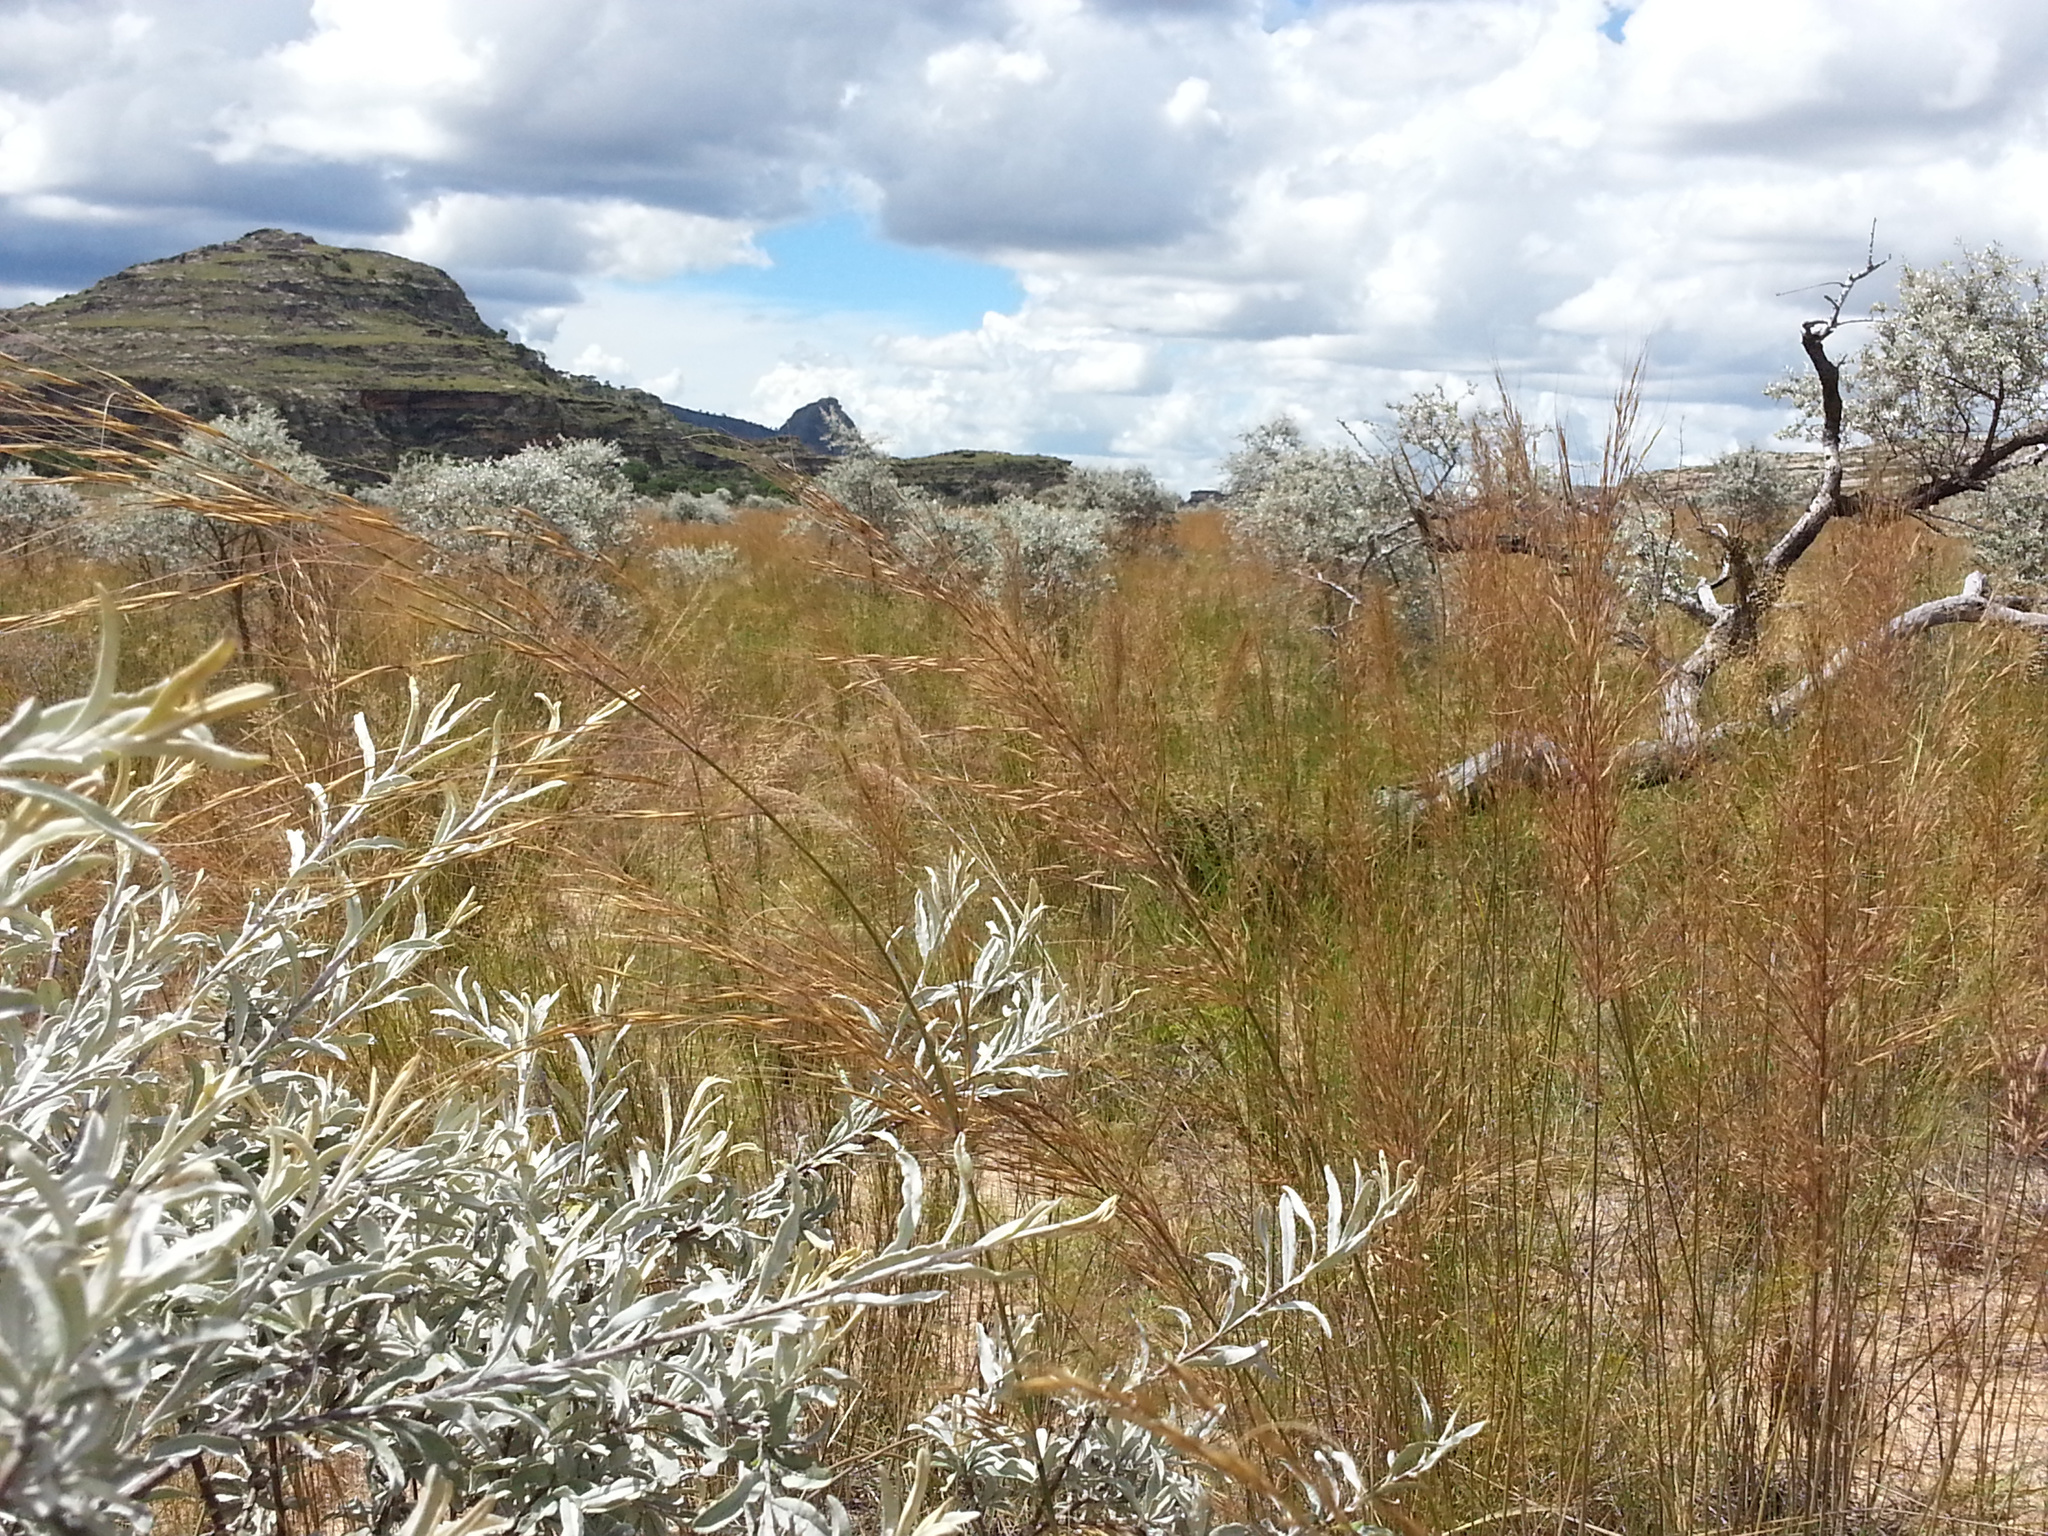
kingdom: Plantae
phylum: Tracheophyta
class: Liliopsida
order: Poales
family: Poaceae
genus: Loudetia
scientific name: Loudetia simplex
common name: Common russet grass
